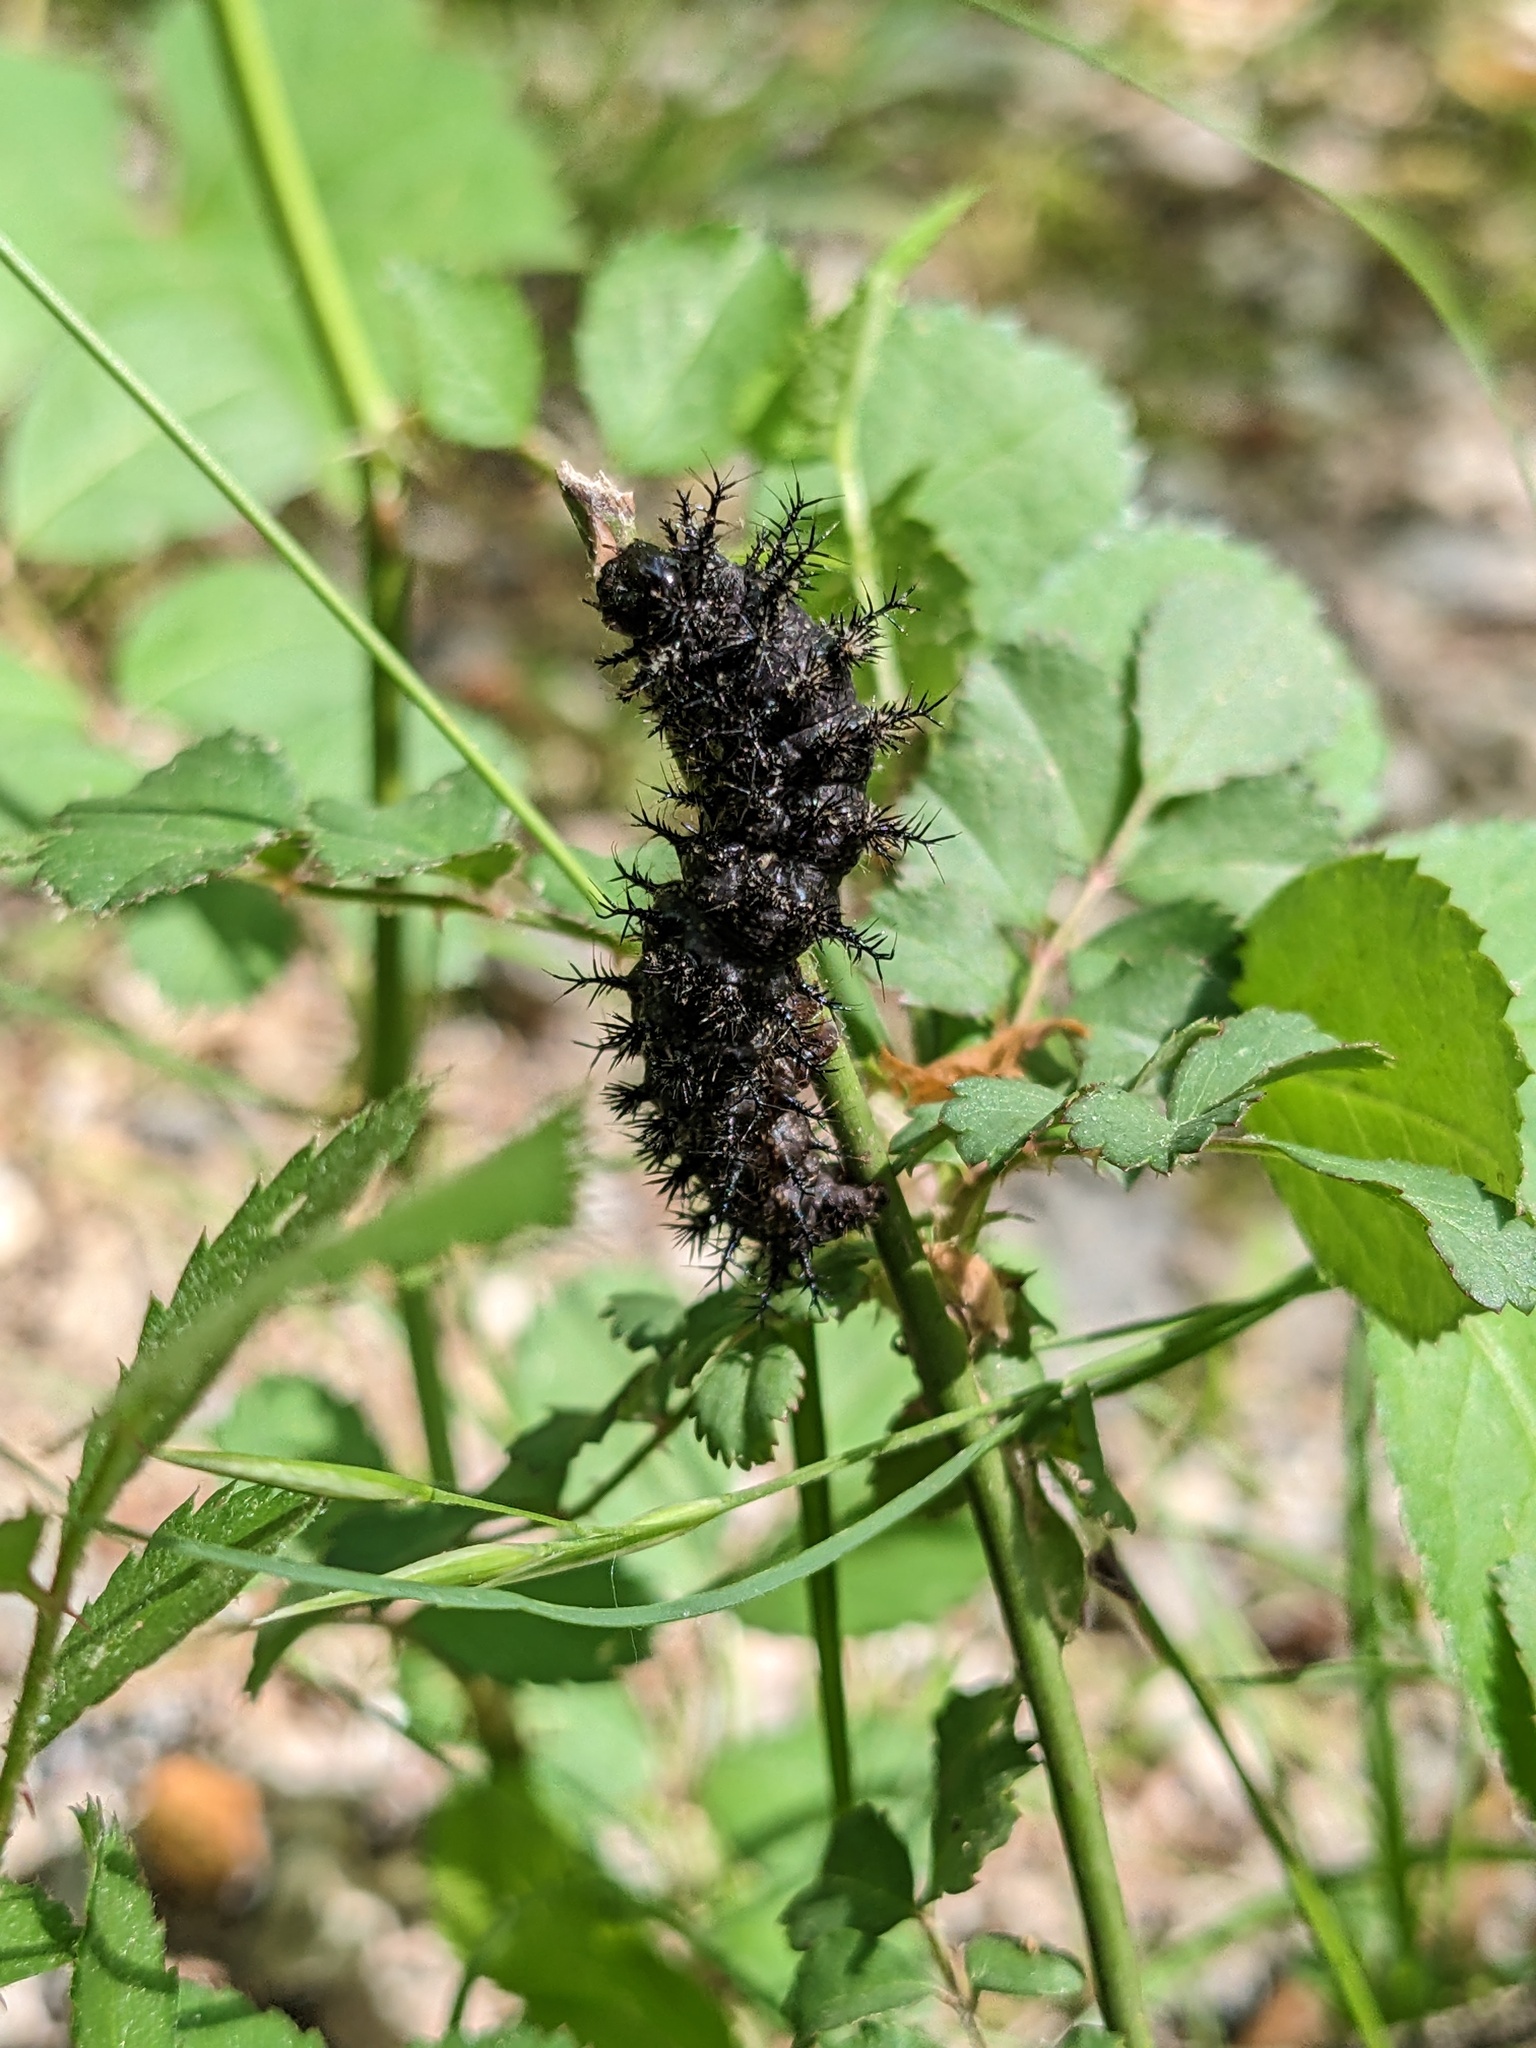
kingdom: Animalia
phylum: Arthropoda
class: Insecta
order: Lepidoptera
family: Saturniidae
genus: Hemileuca
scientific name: Hemileuca maia
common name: Eastern buckmoth
